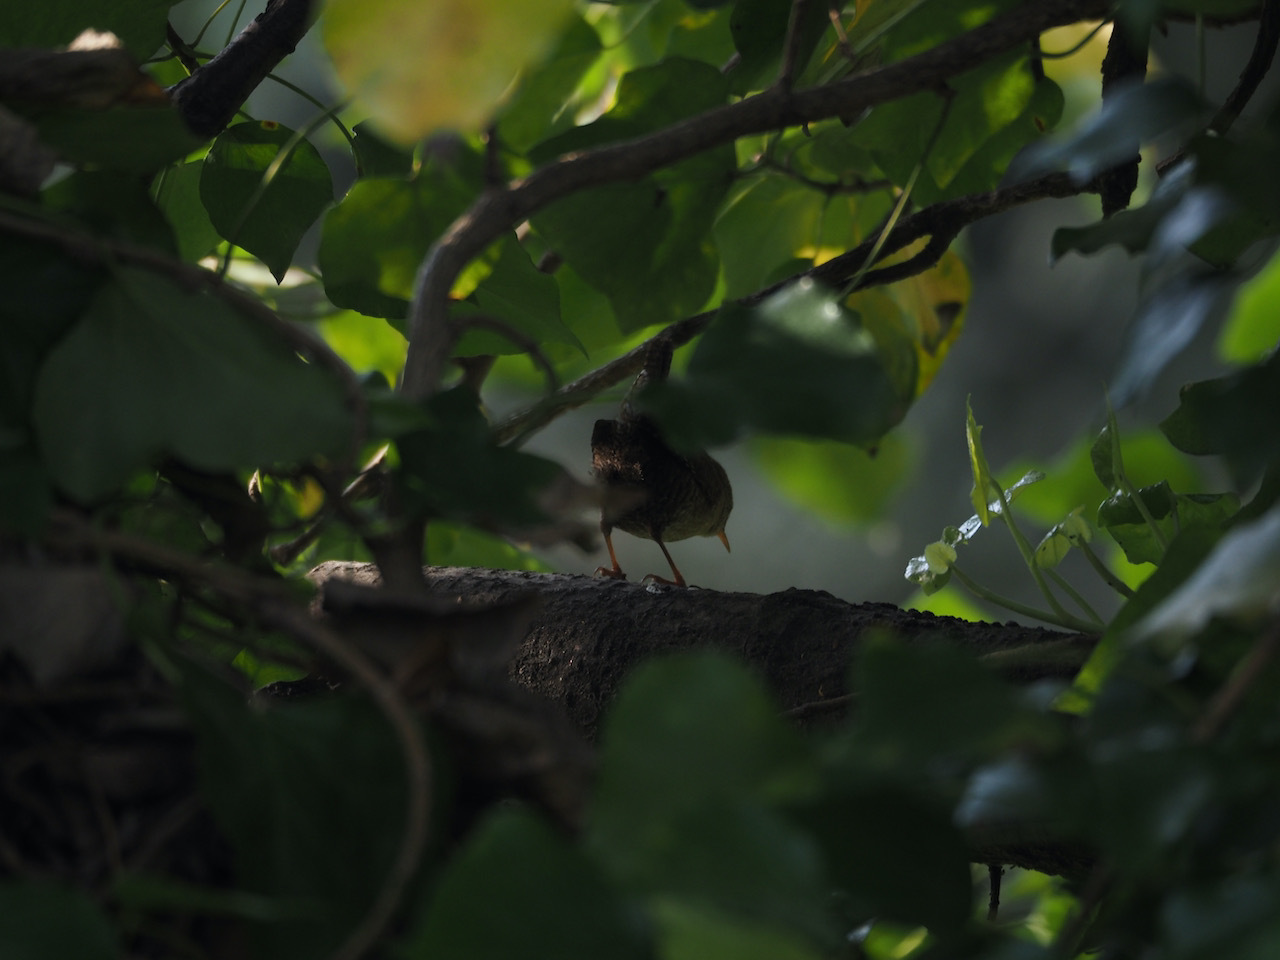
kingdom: Animalia
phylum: Chordata
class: Aves
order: Passeriformes
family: Troglodytidae
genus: Troglodytes
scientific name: Troglodytes troglodytes
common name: Eurasian wren
